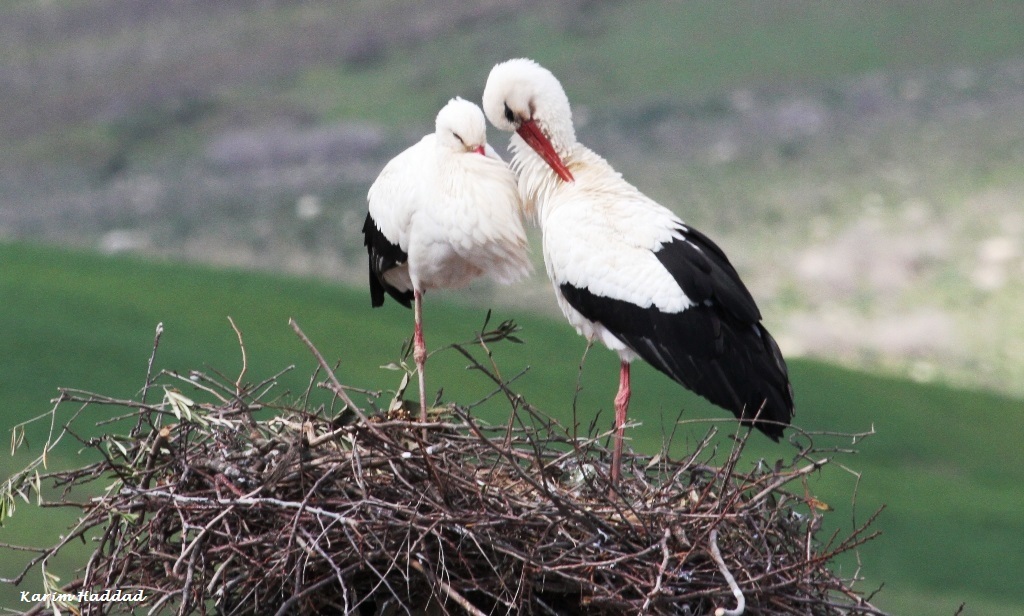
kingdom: Animalia
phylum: Chordata
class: Aves
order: Ciconiiformes
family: Ciconiidae
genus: Ciconia
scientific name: Ciconia ciconia
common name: White stork
